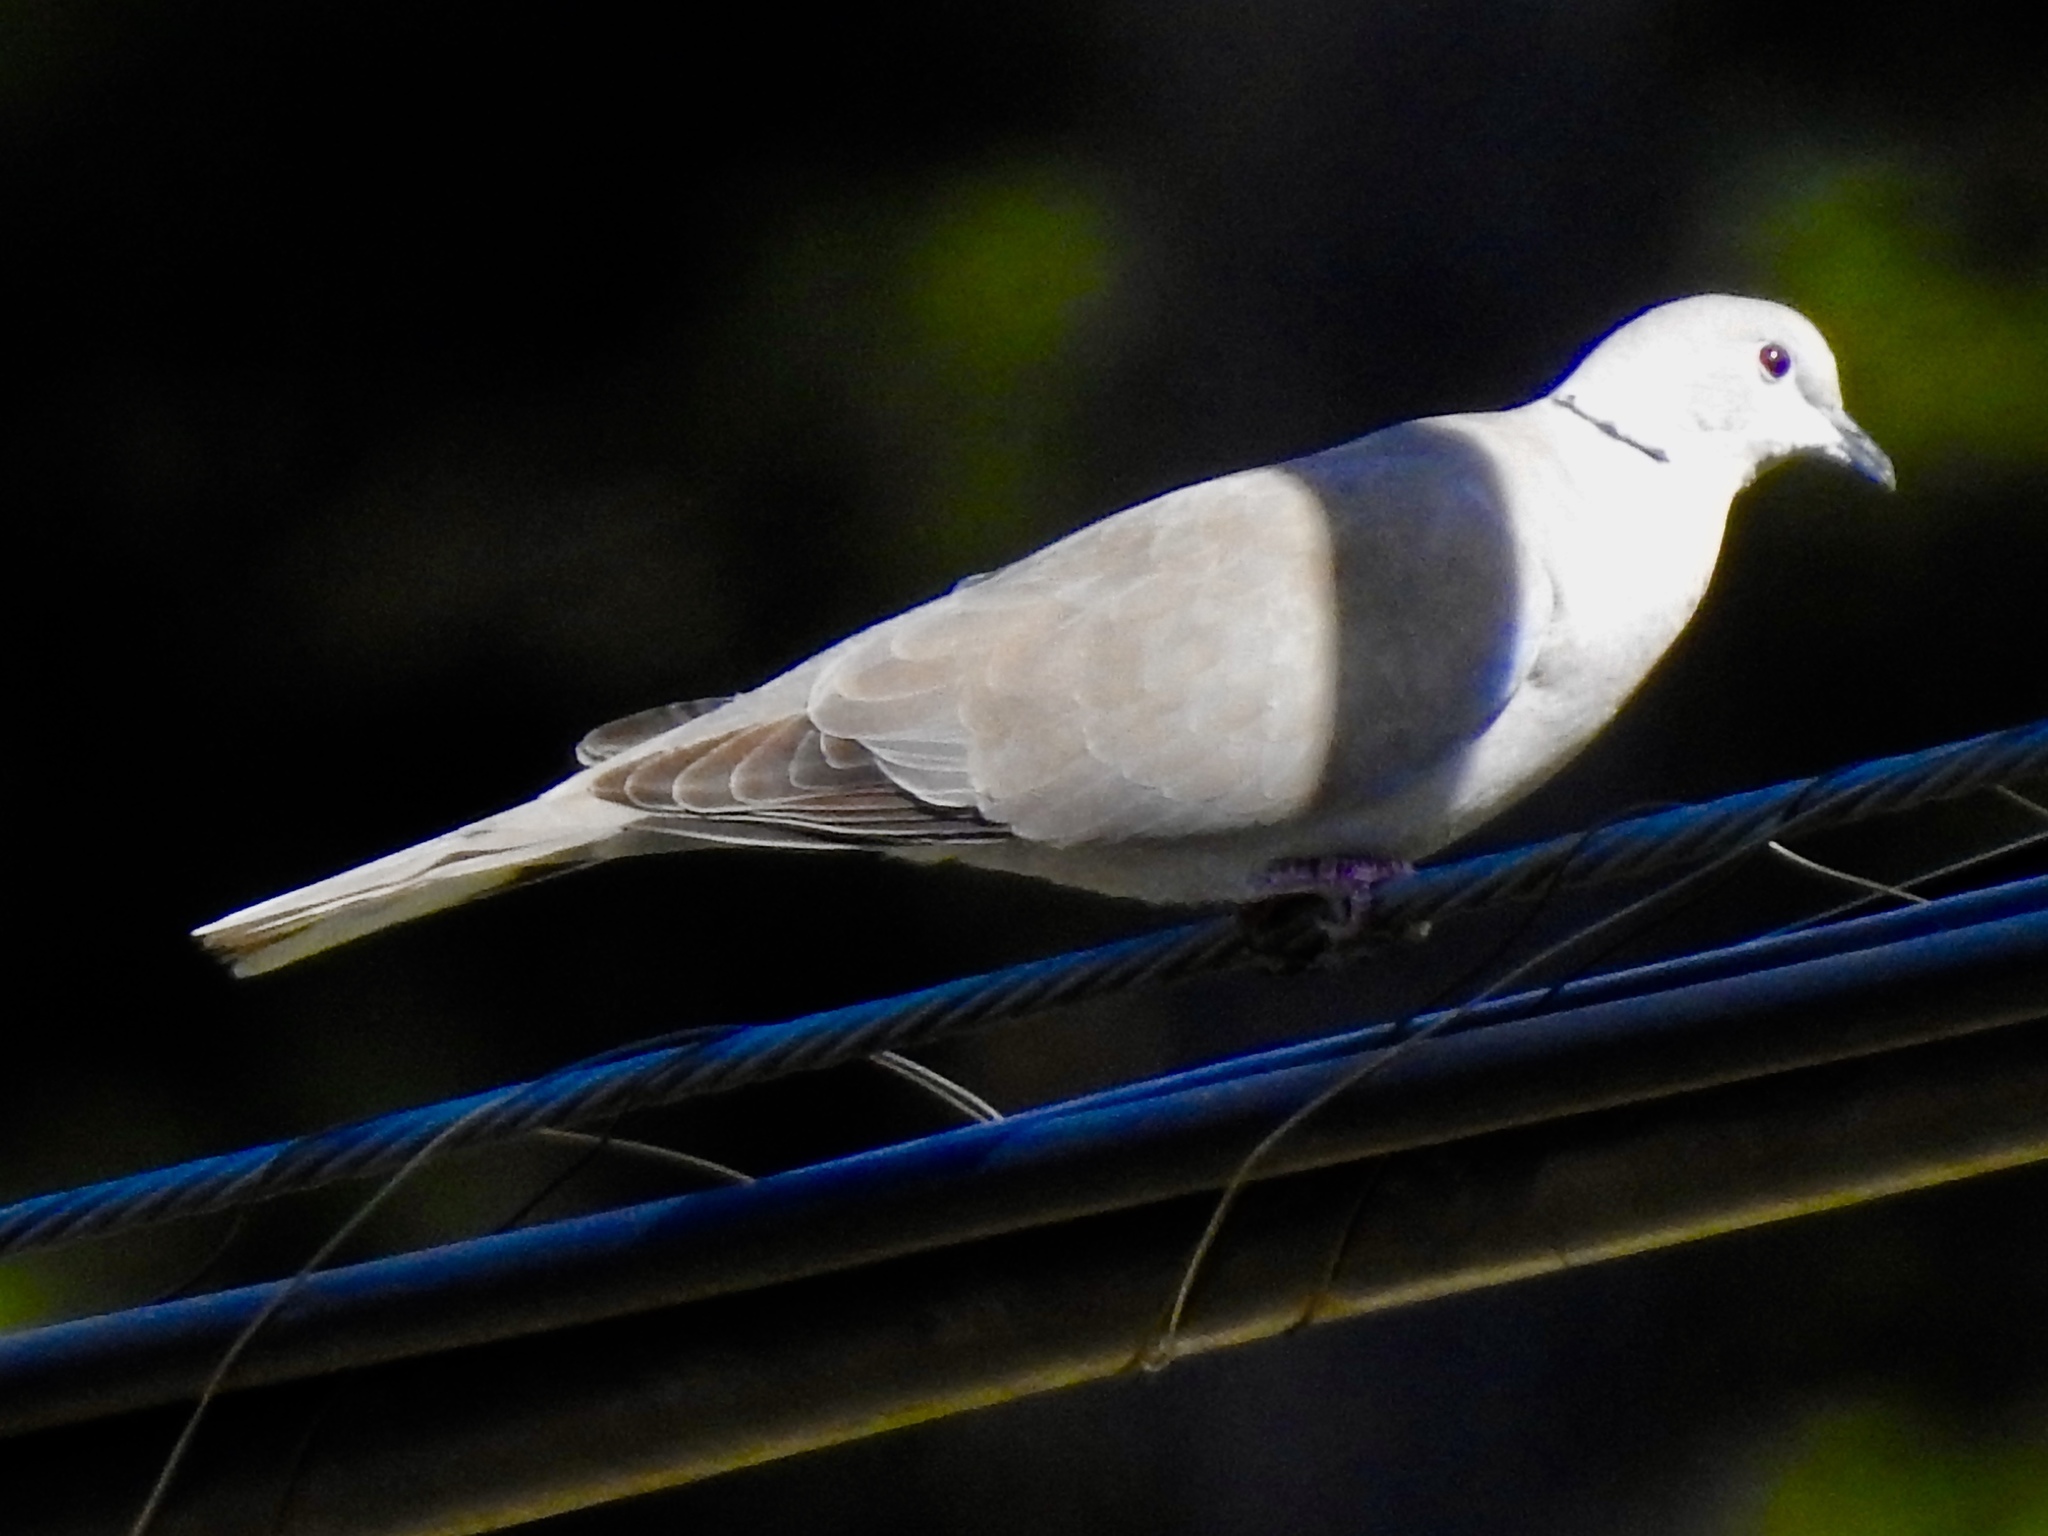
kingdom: Animalia
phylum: Chordata
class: Aves
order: Columbiformes
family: Columbidae
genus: Streptopelia
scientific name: Streptopelia decaocto
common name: Eurasian collared dove
